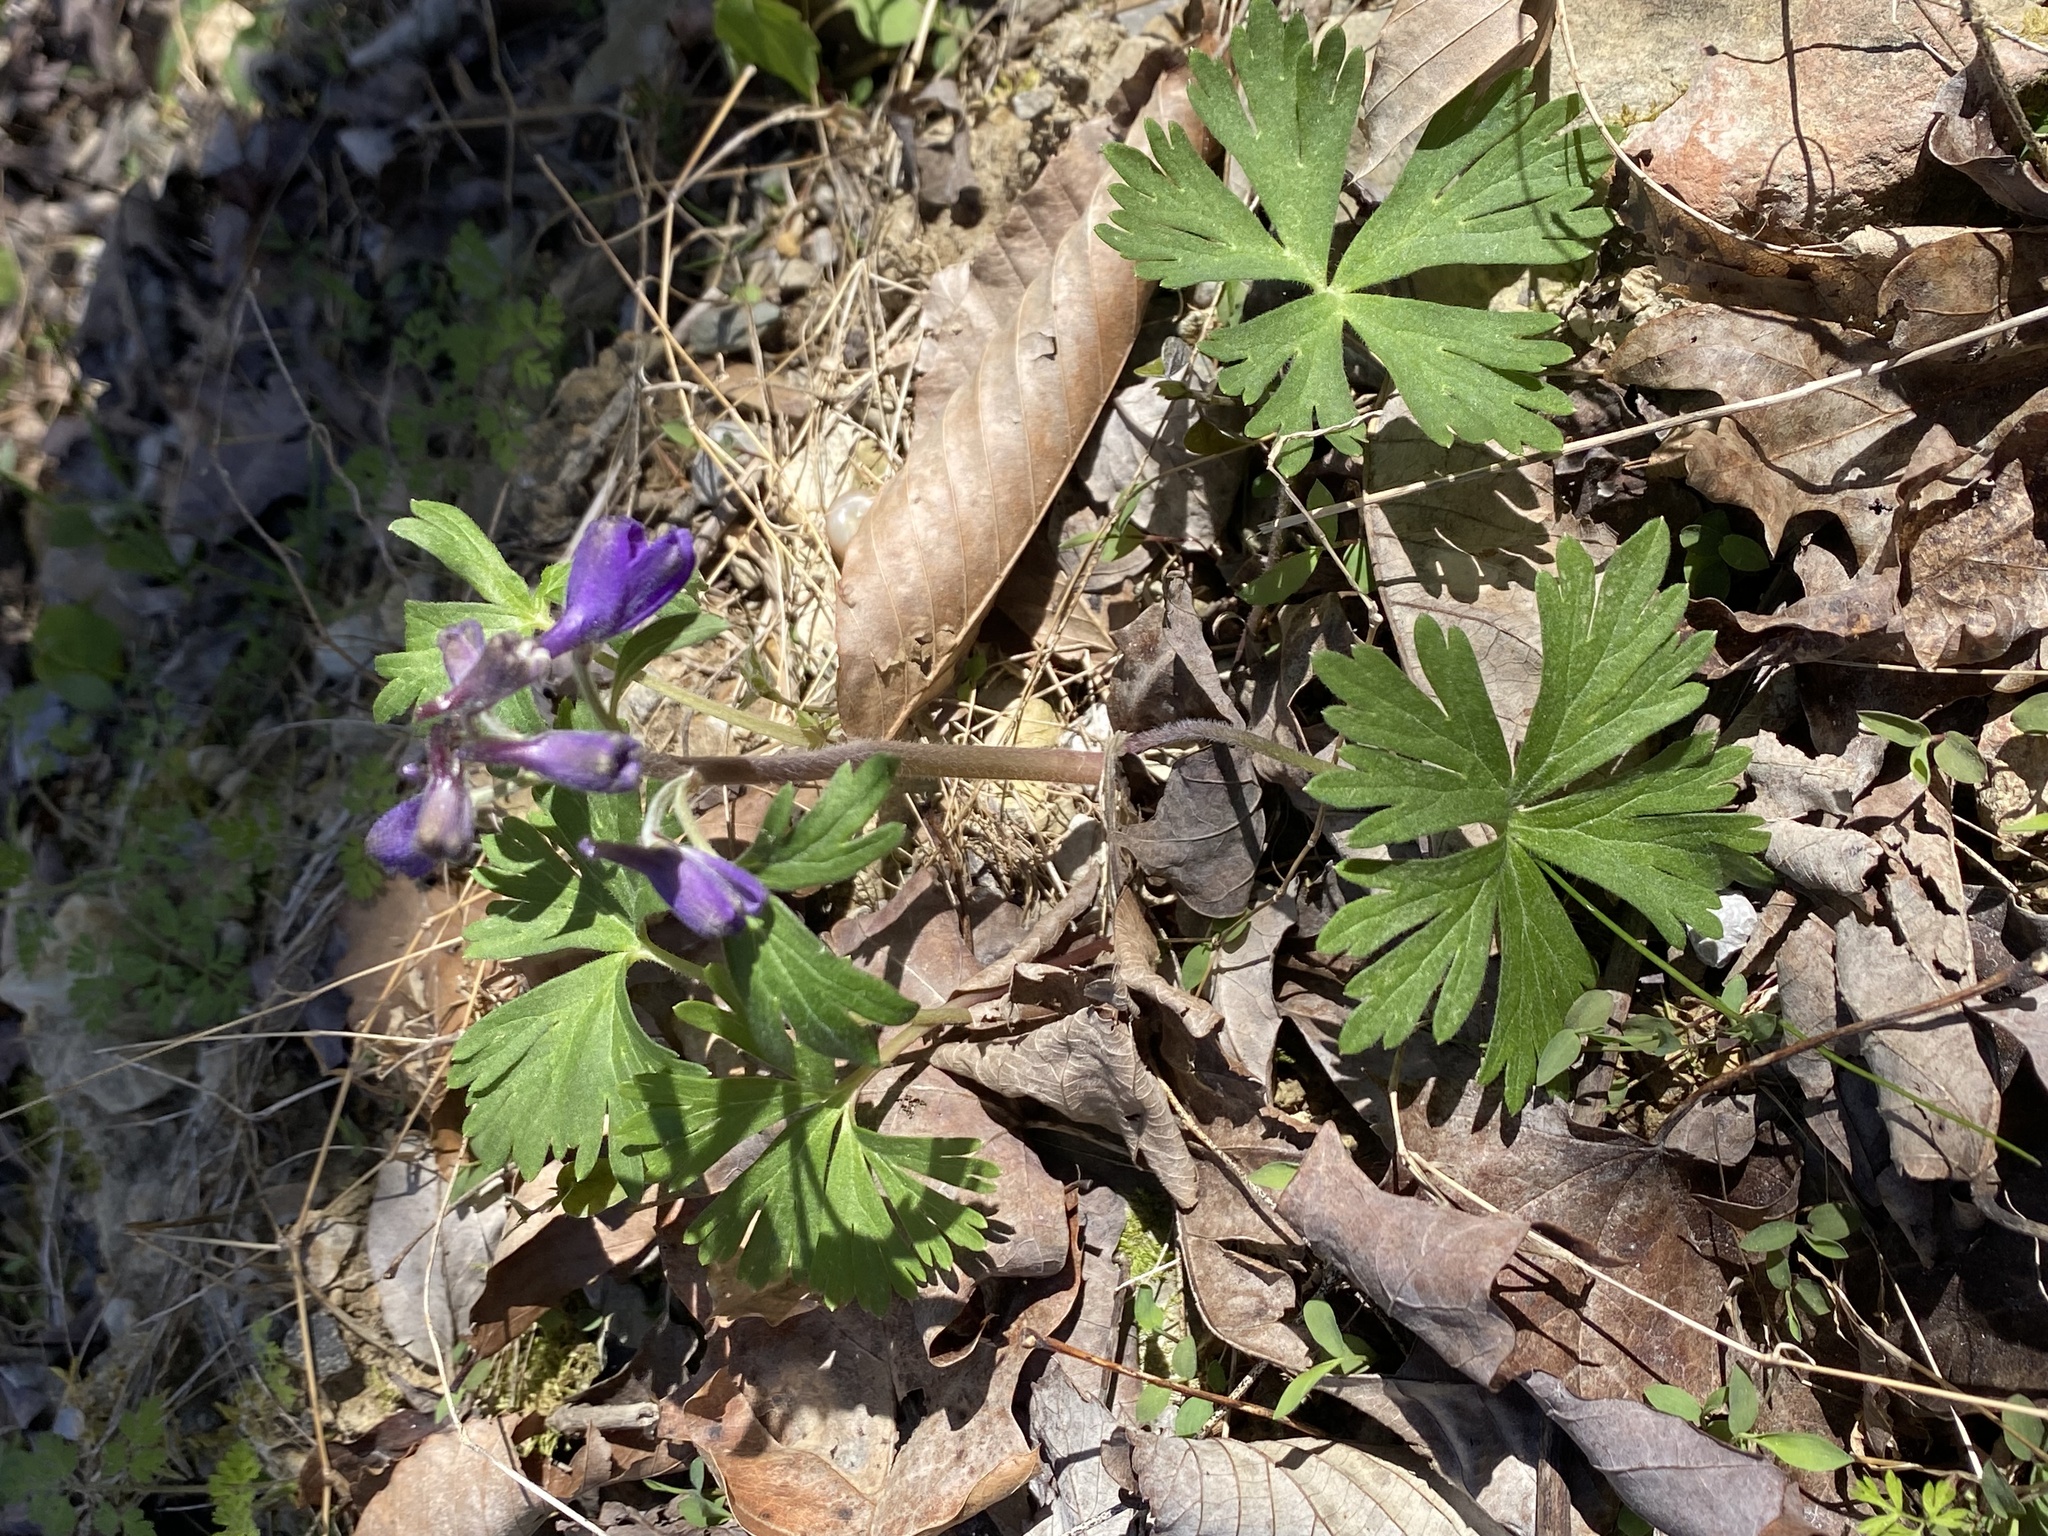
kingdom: Plantae
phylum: Tracheophyta
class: Magnoliopsida
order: Ranunculales
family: Ranunculaceae
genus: Delphinium
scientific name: Delphinium tricorne
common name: Dwarf larkspur
